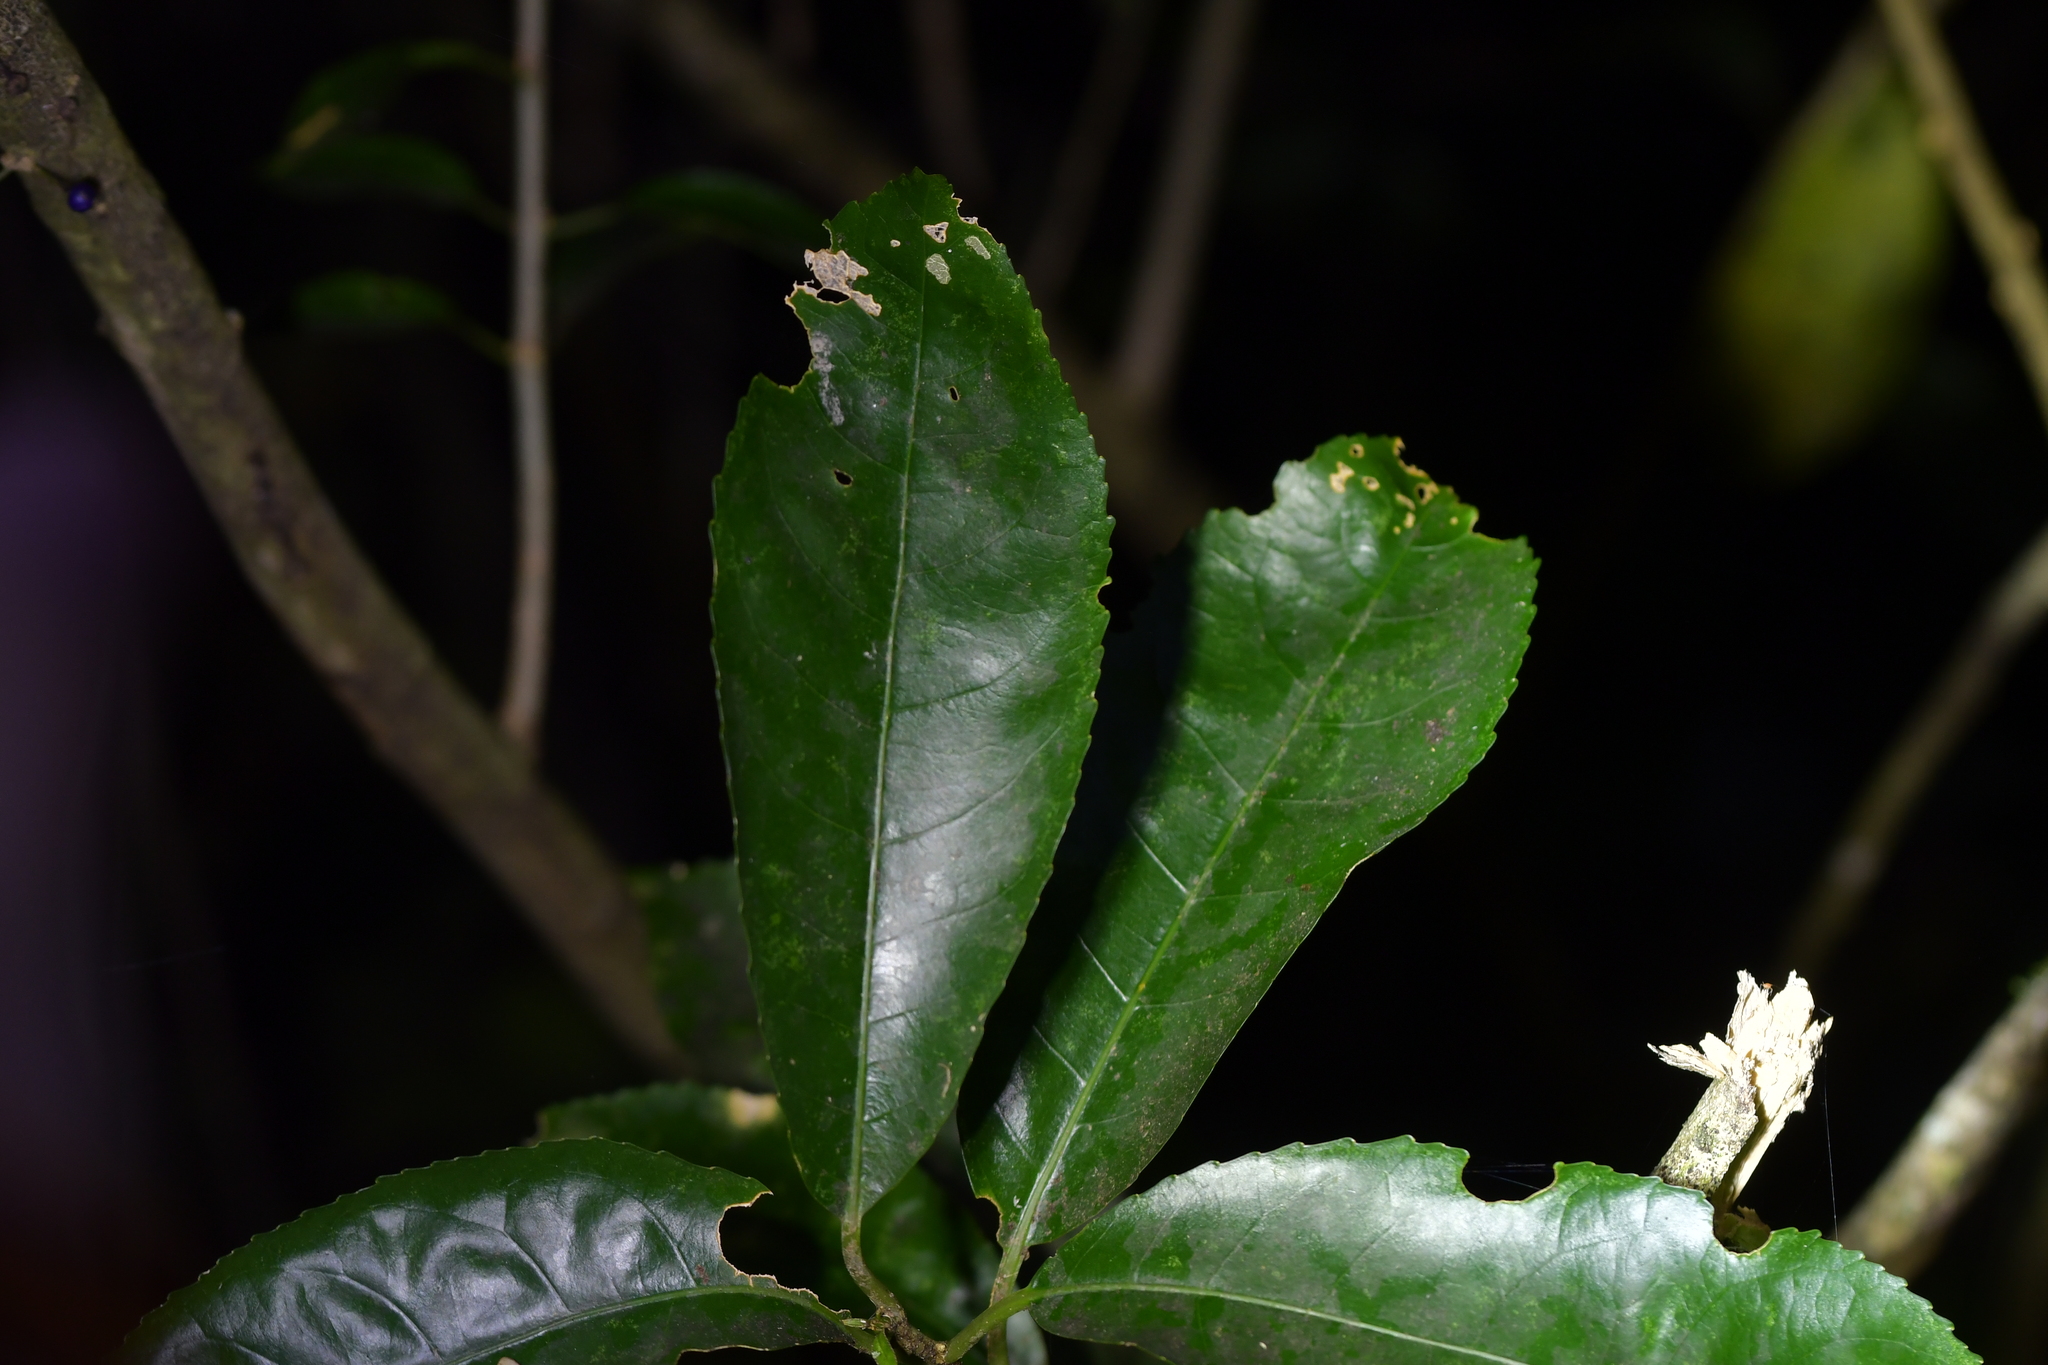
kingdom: Plantae
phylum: Tracheophyta
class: Magnoliopsida
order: Malpighiales
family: Violaceae
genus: Melicytus
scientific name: Melicytus ramiflorus
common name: Mahoe
